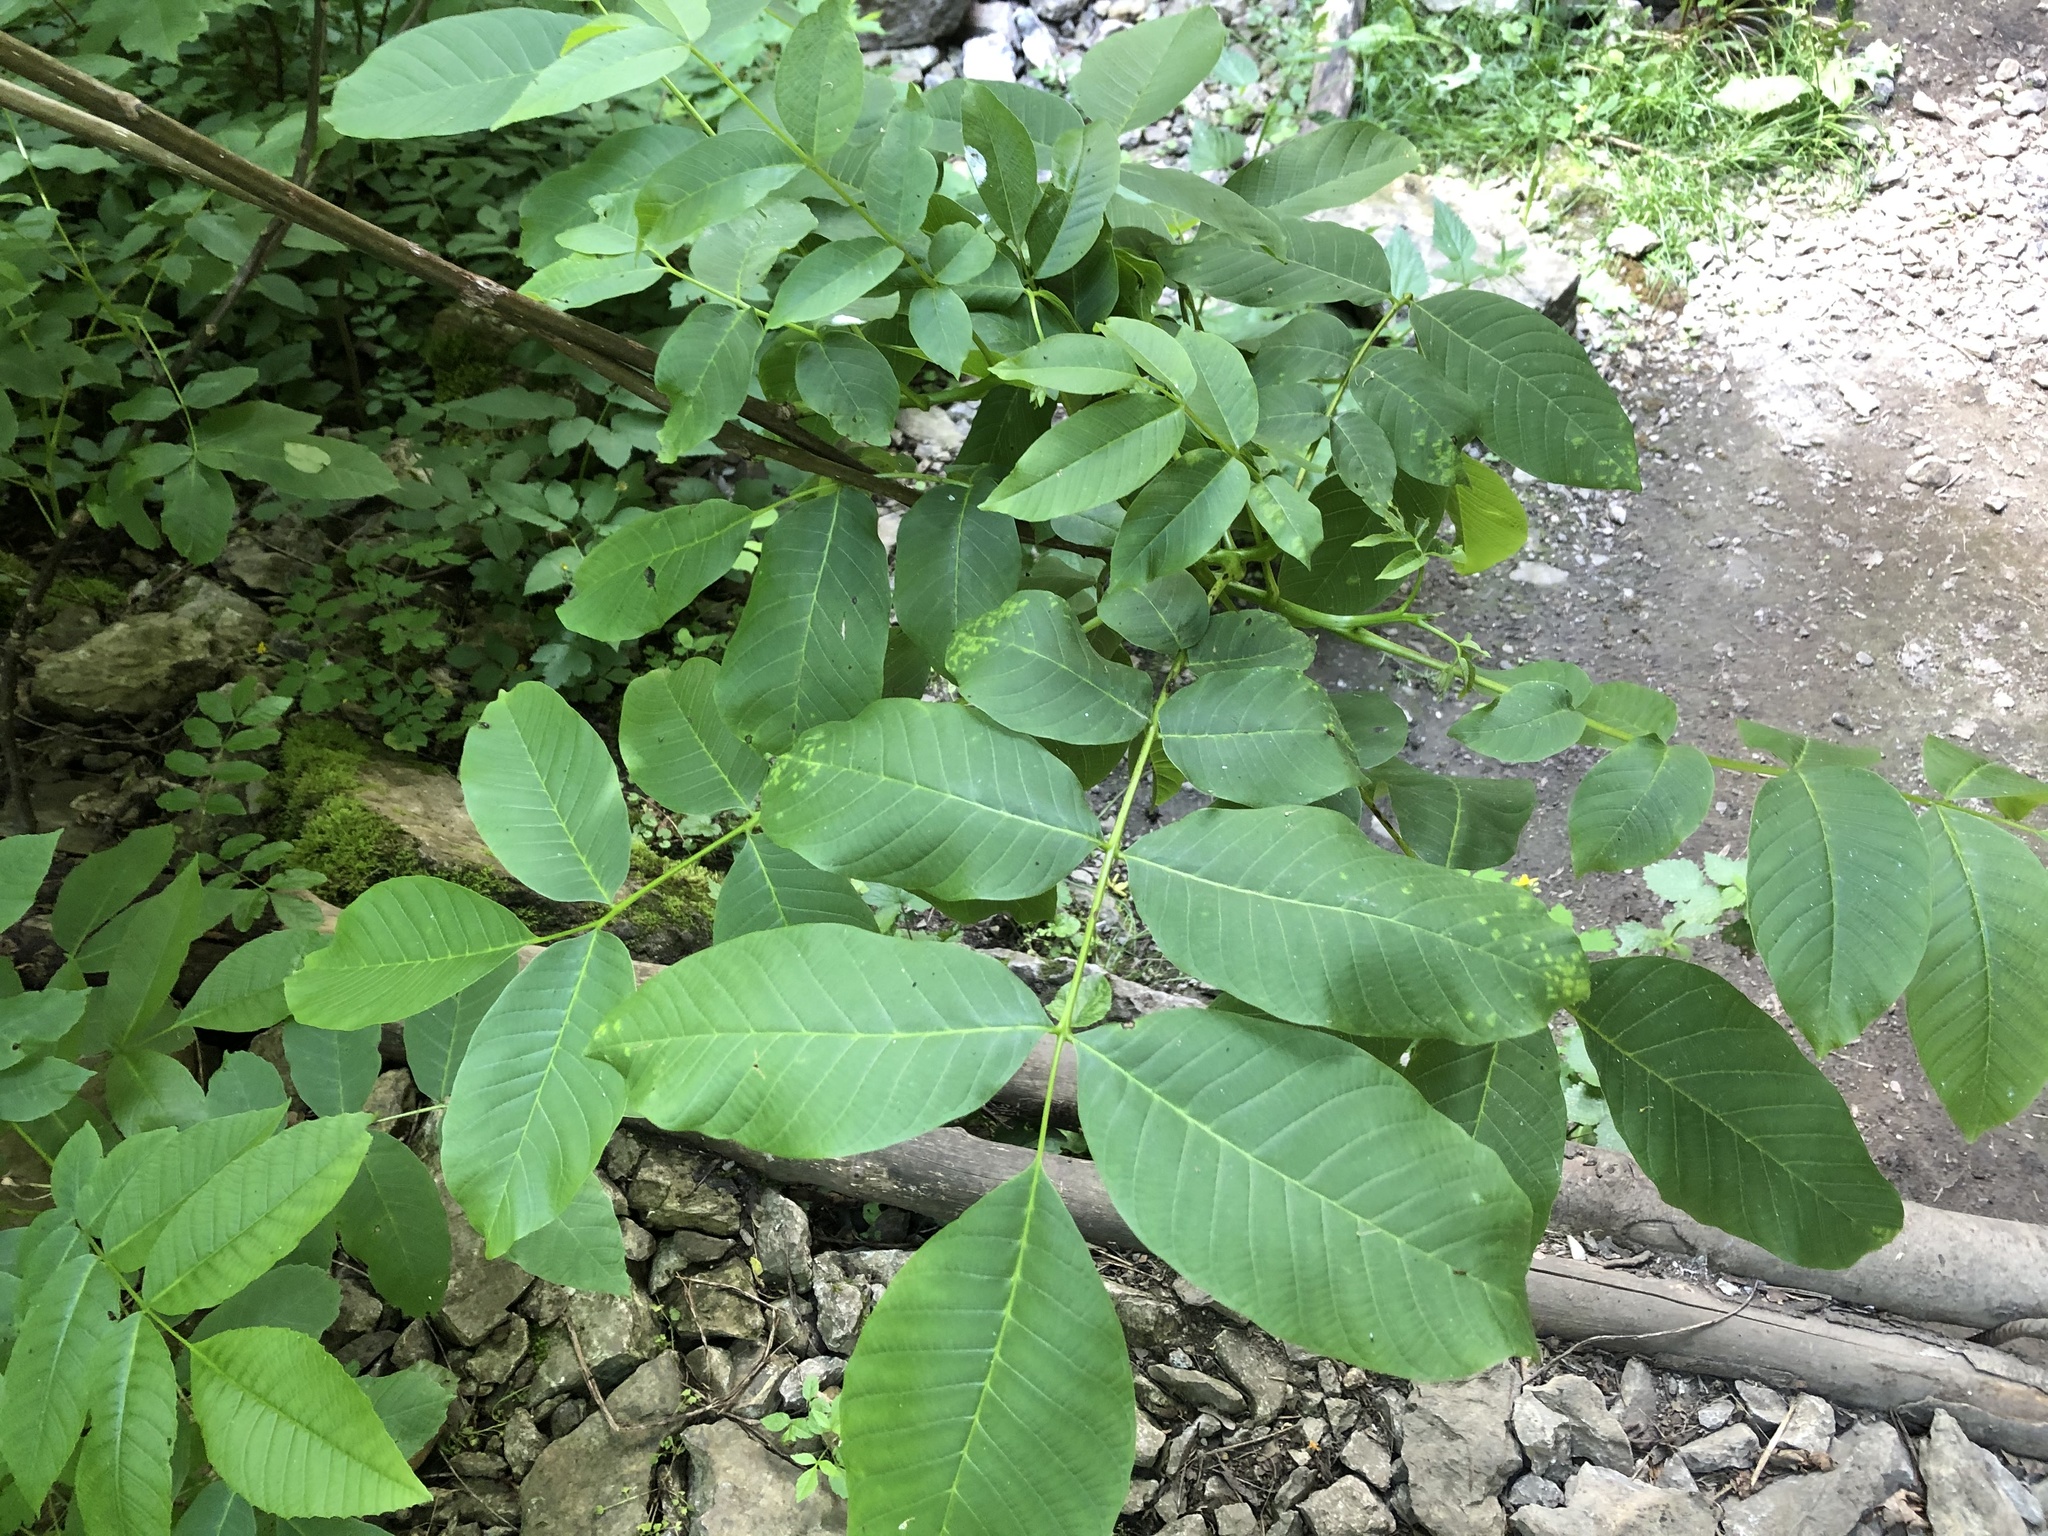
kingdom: Plantae
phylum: Tracheophyta
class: Magnoliopsida
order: Fagales
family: Juglandaceae
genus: Juglans
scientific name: Juglans regia
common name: Walnut
